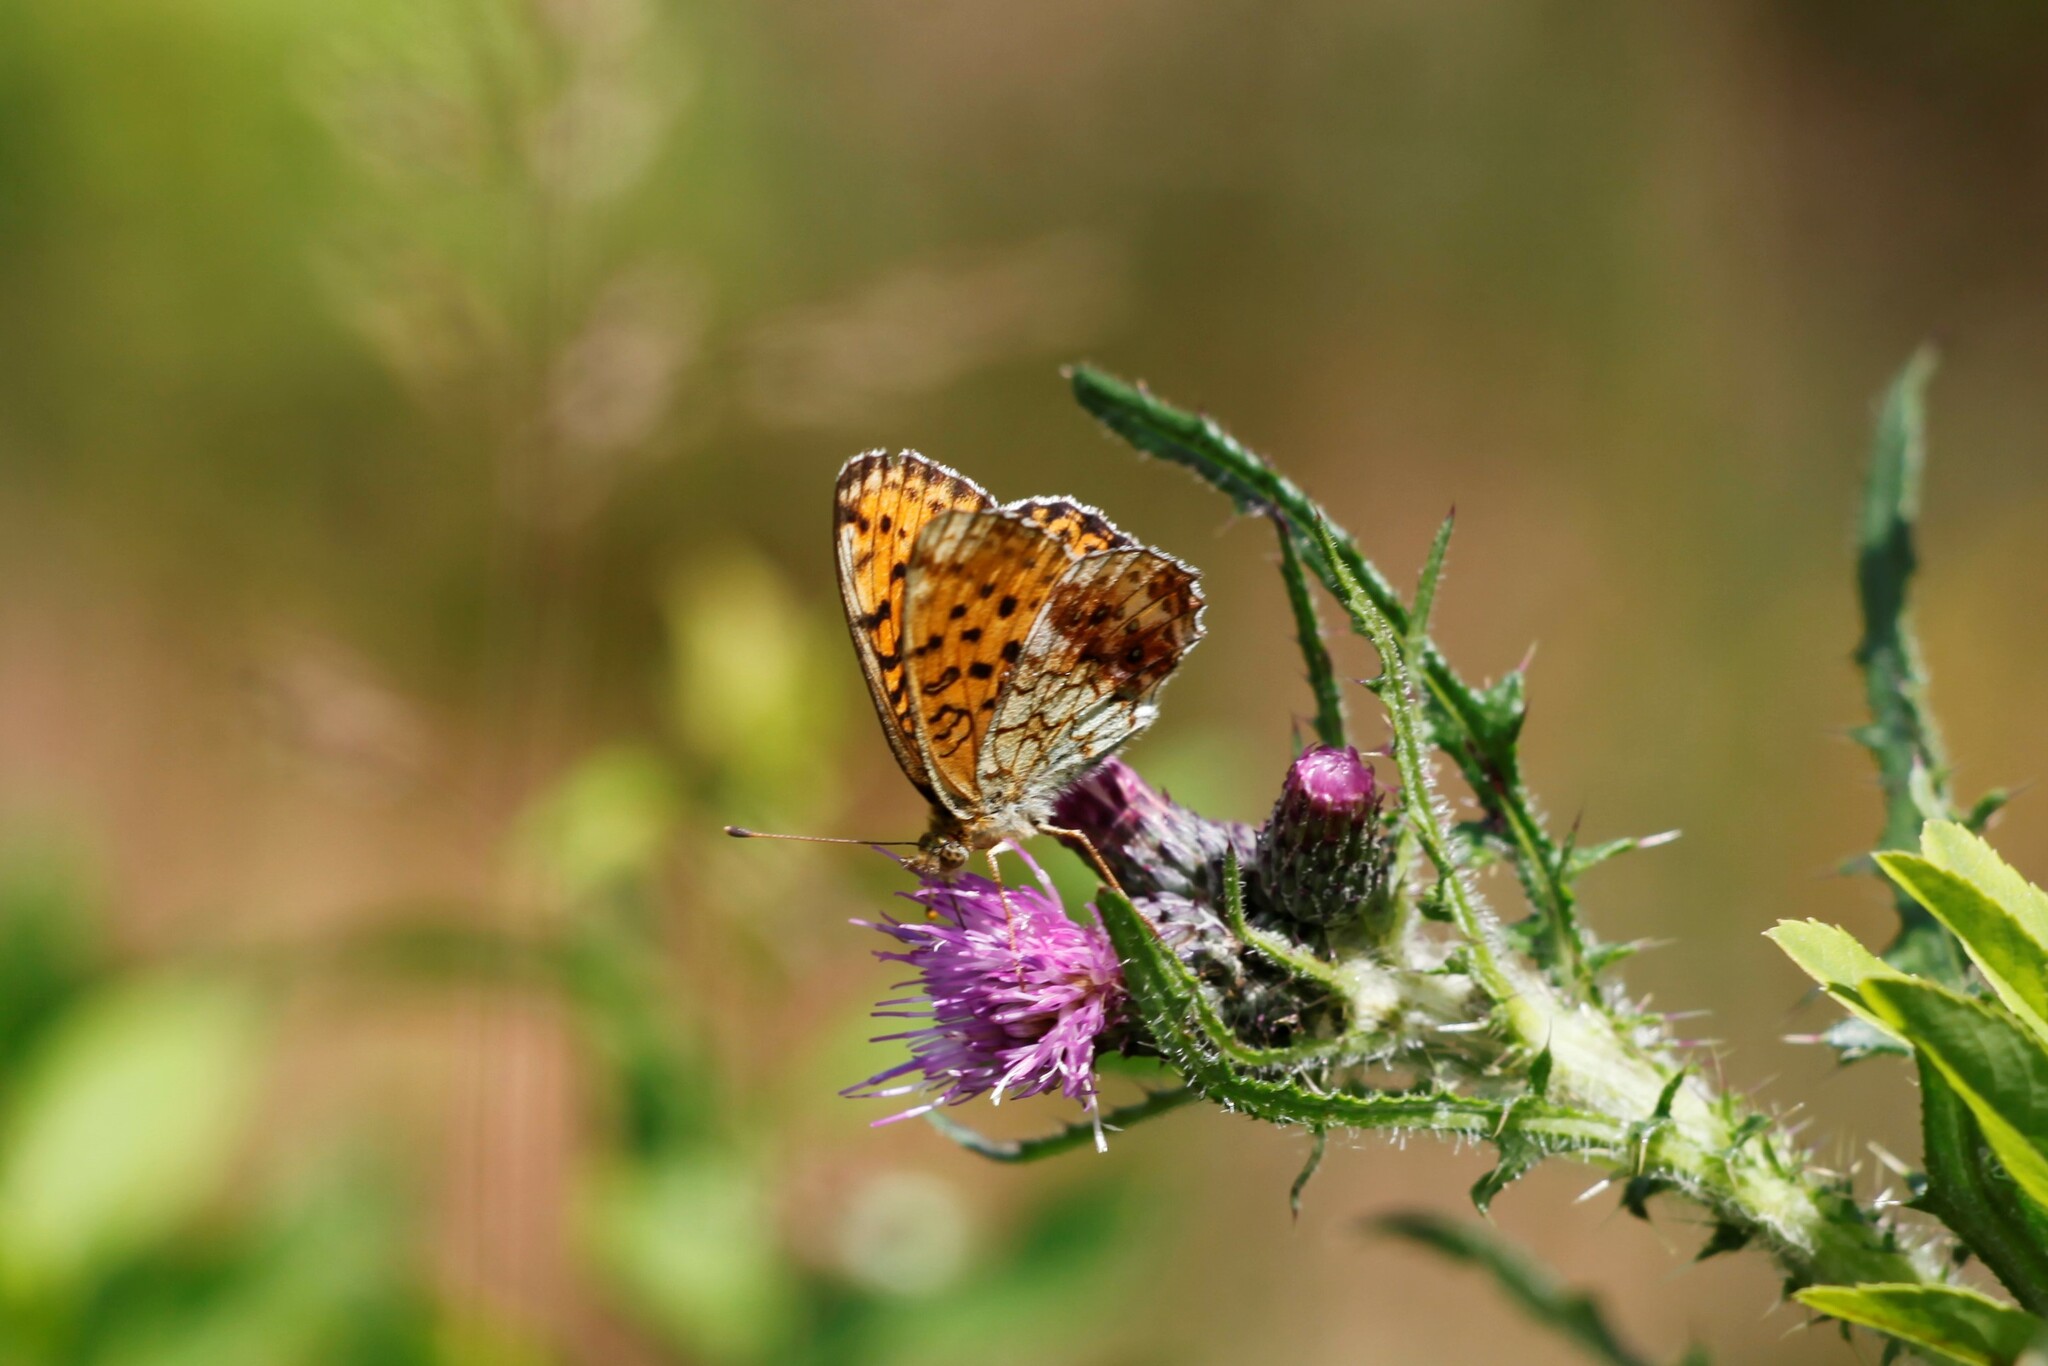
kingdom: Animalia
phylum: Arthropoda
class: Insecta
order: Lepidoptera
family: Nymphalidae
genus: Brenthis
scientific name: Brenthis ino
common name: Lesser marbled fritillary
